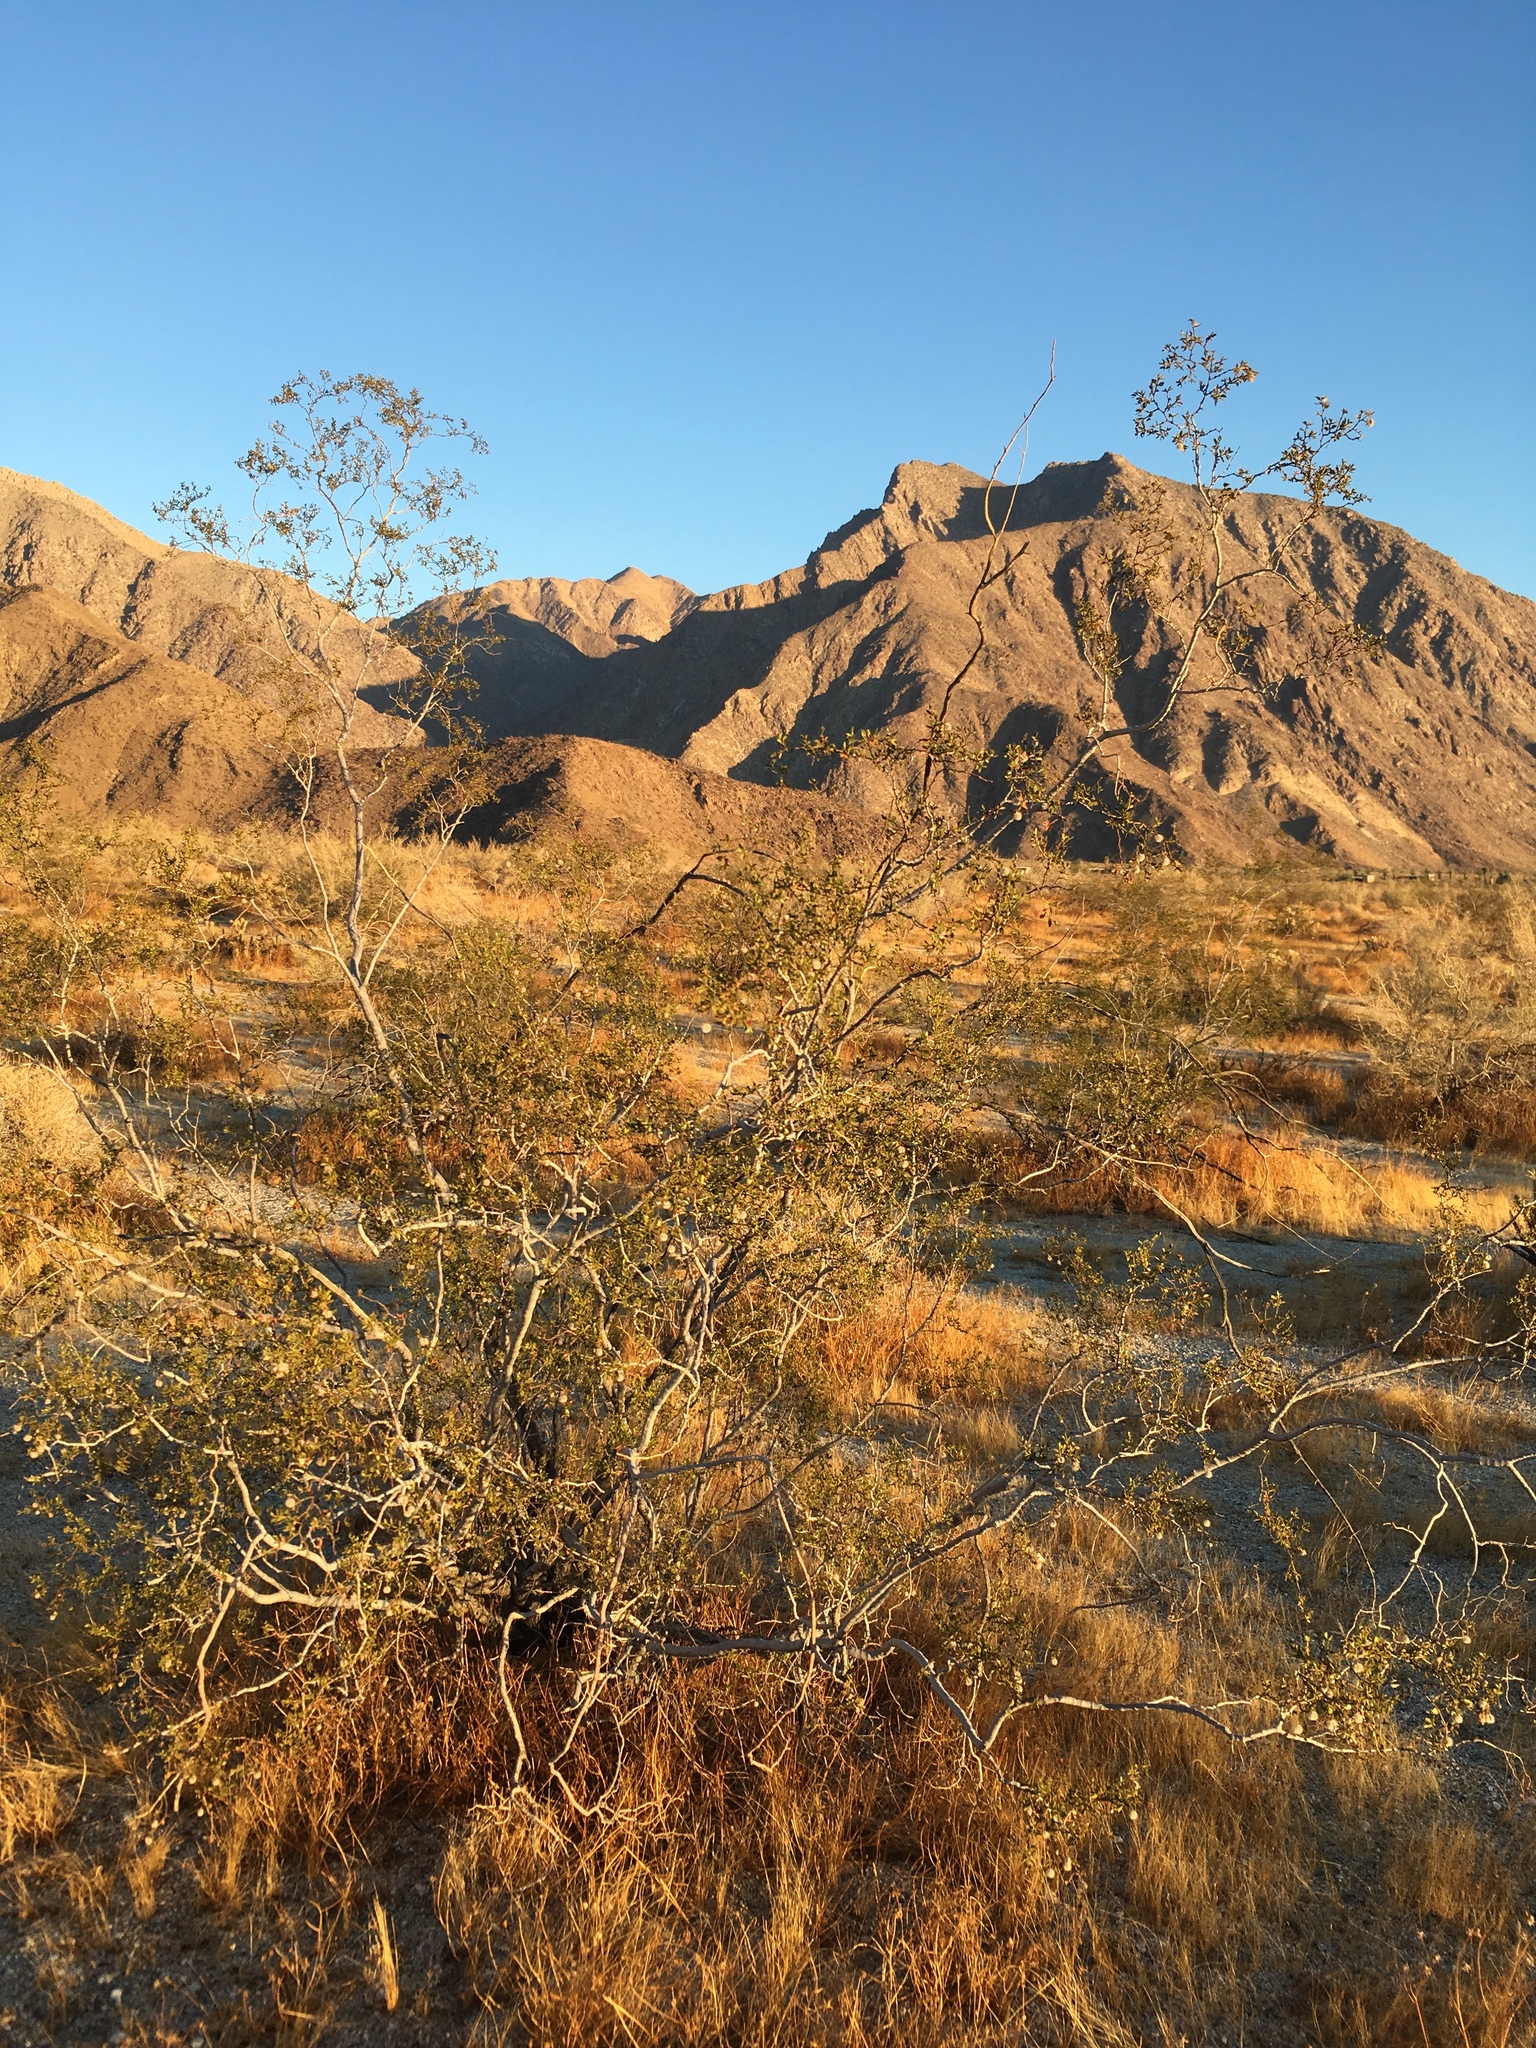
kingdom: Plantae
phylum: Tracheophyta
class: Magnoliopsida
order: Zygophyllales
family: Zygophyllaceae
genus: Larrea
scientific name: Larrea tridentata
